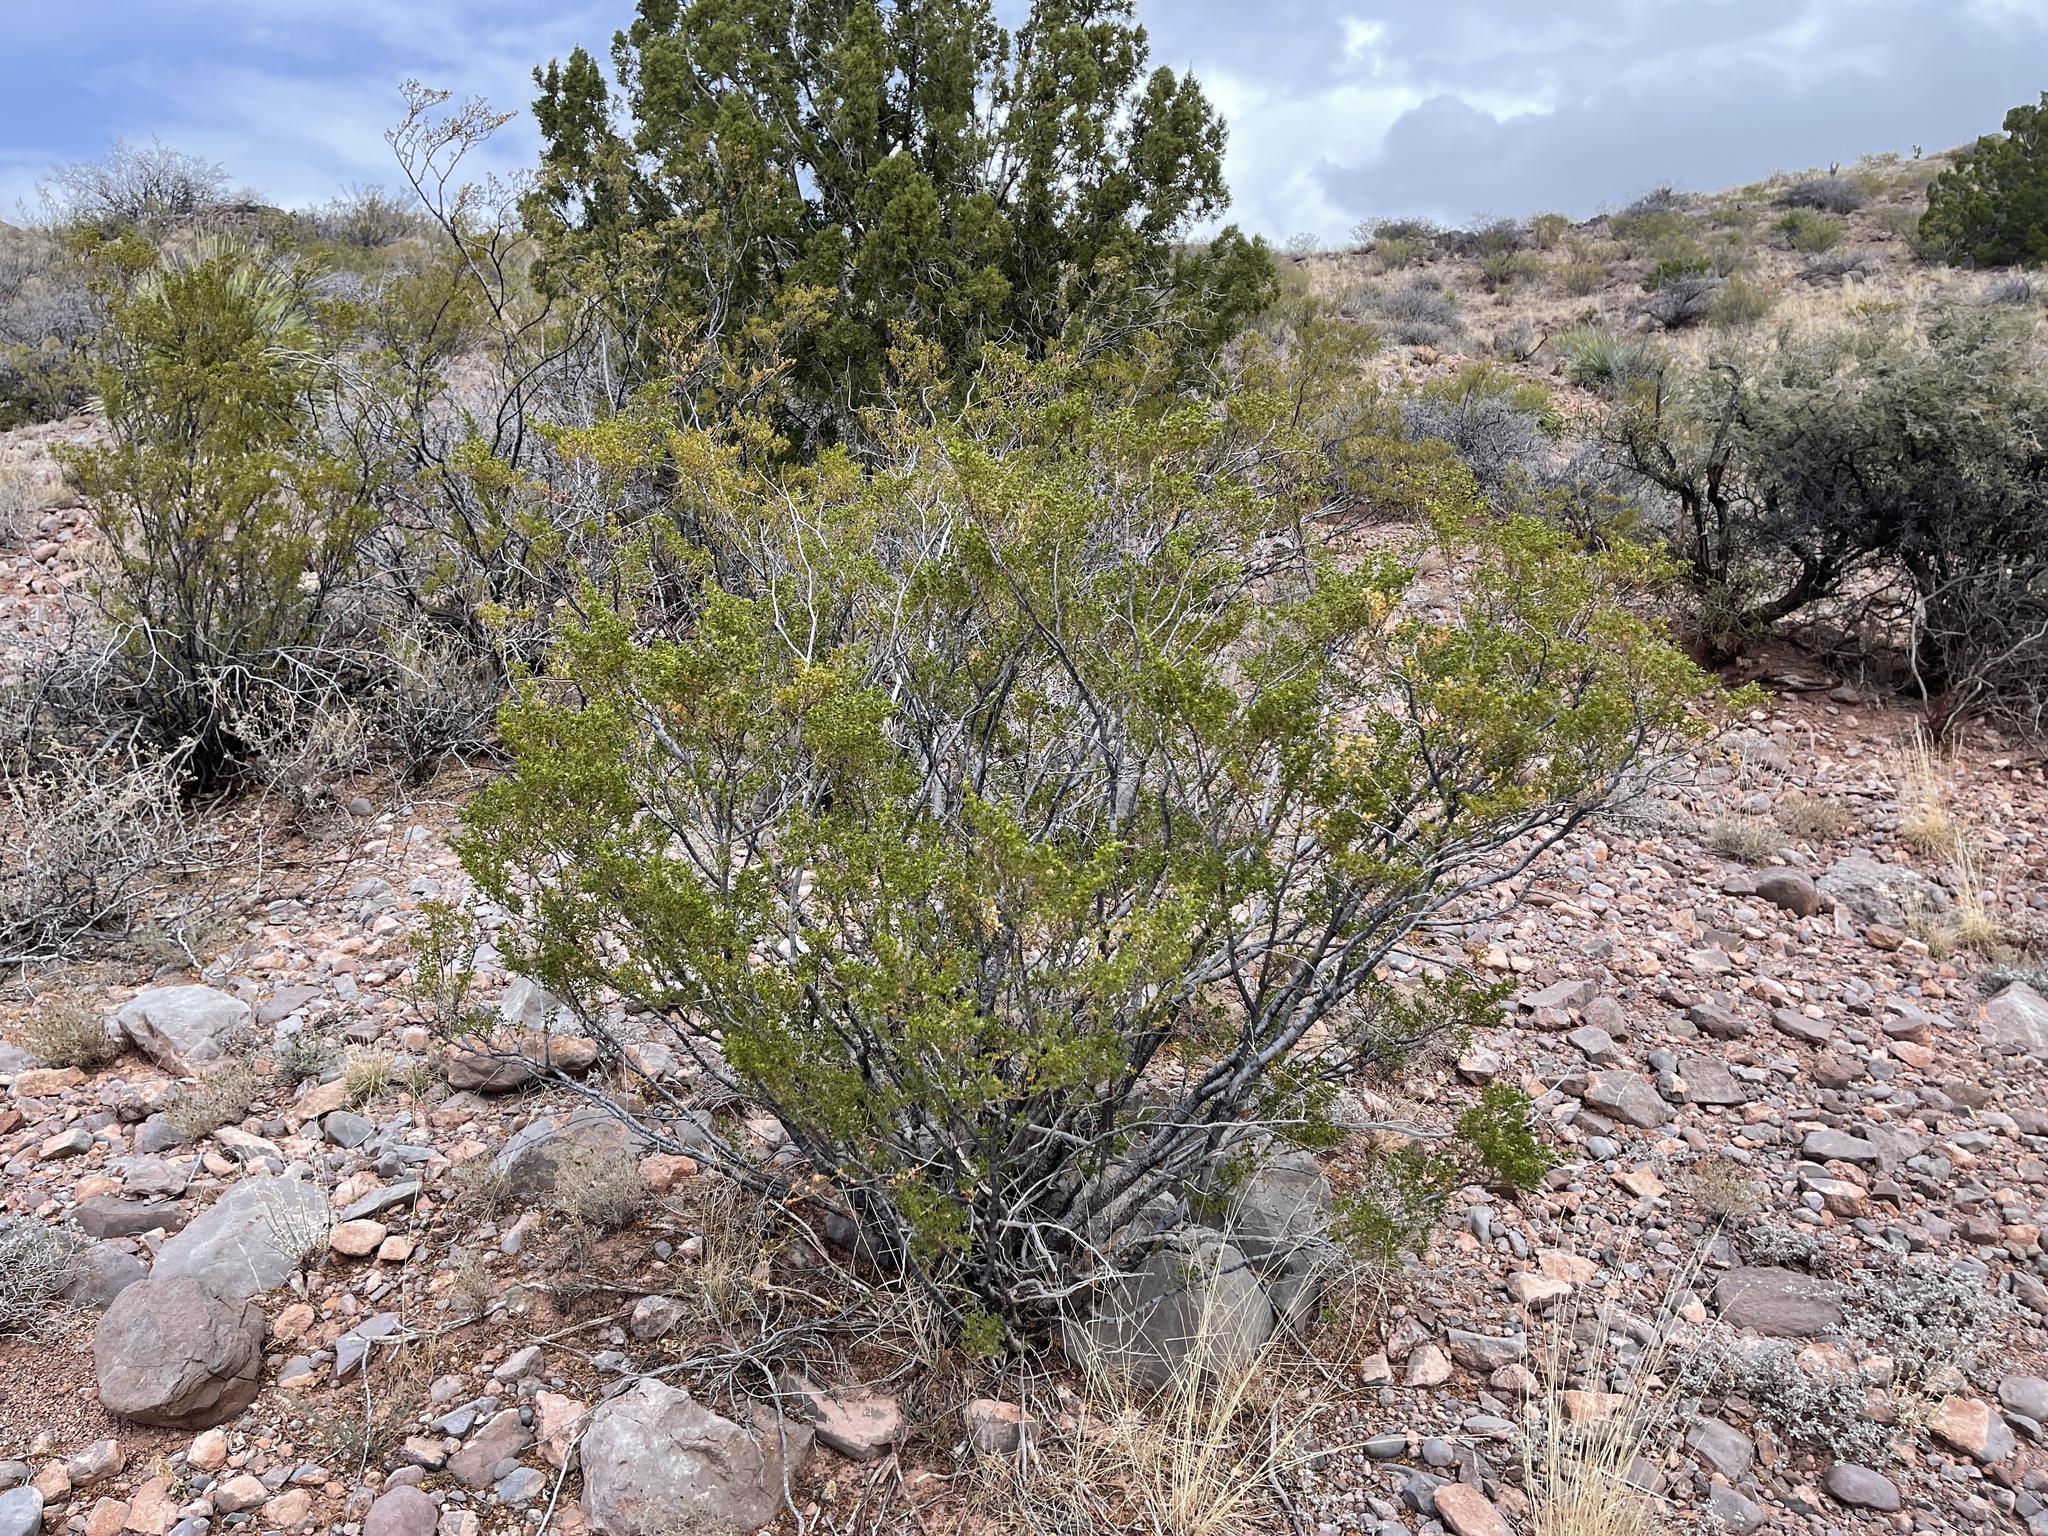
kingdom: Plantae
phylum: Tracheophyta
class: Magnoliopsida
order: Zygophyllales
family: Zygophyllaceae
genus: Larrea
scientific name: Larrea tridentata
